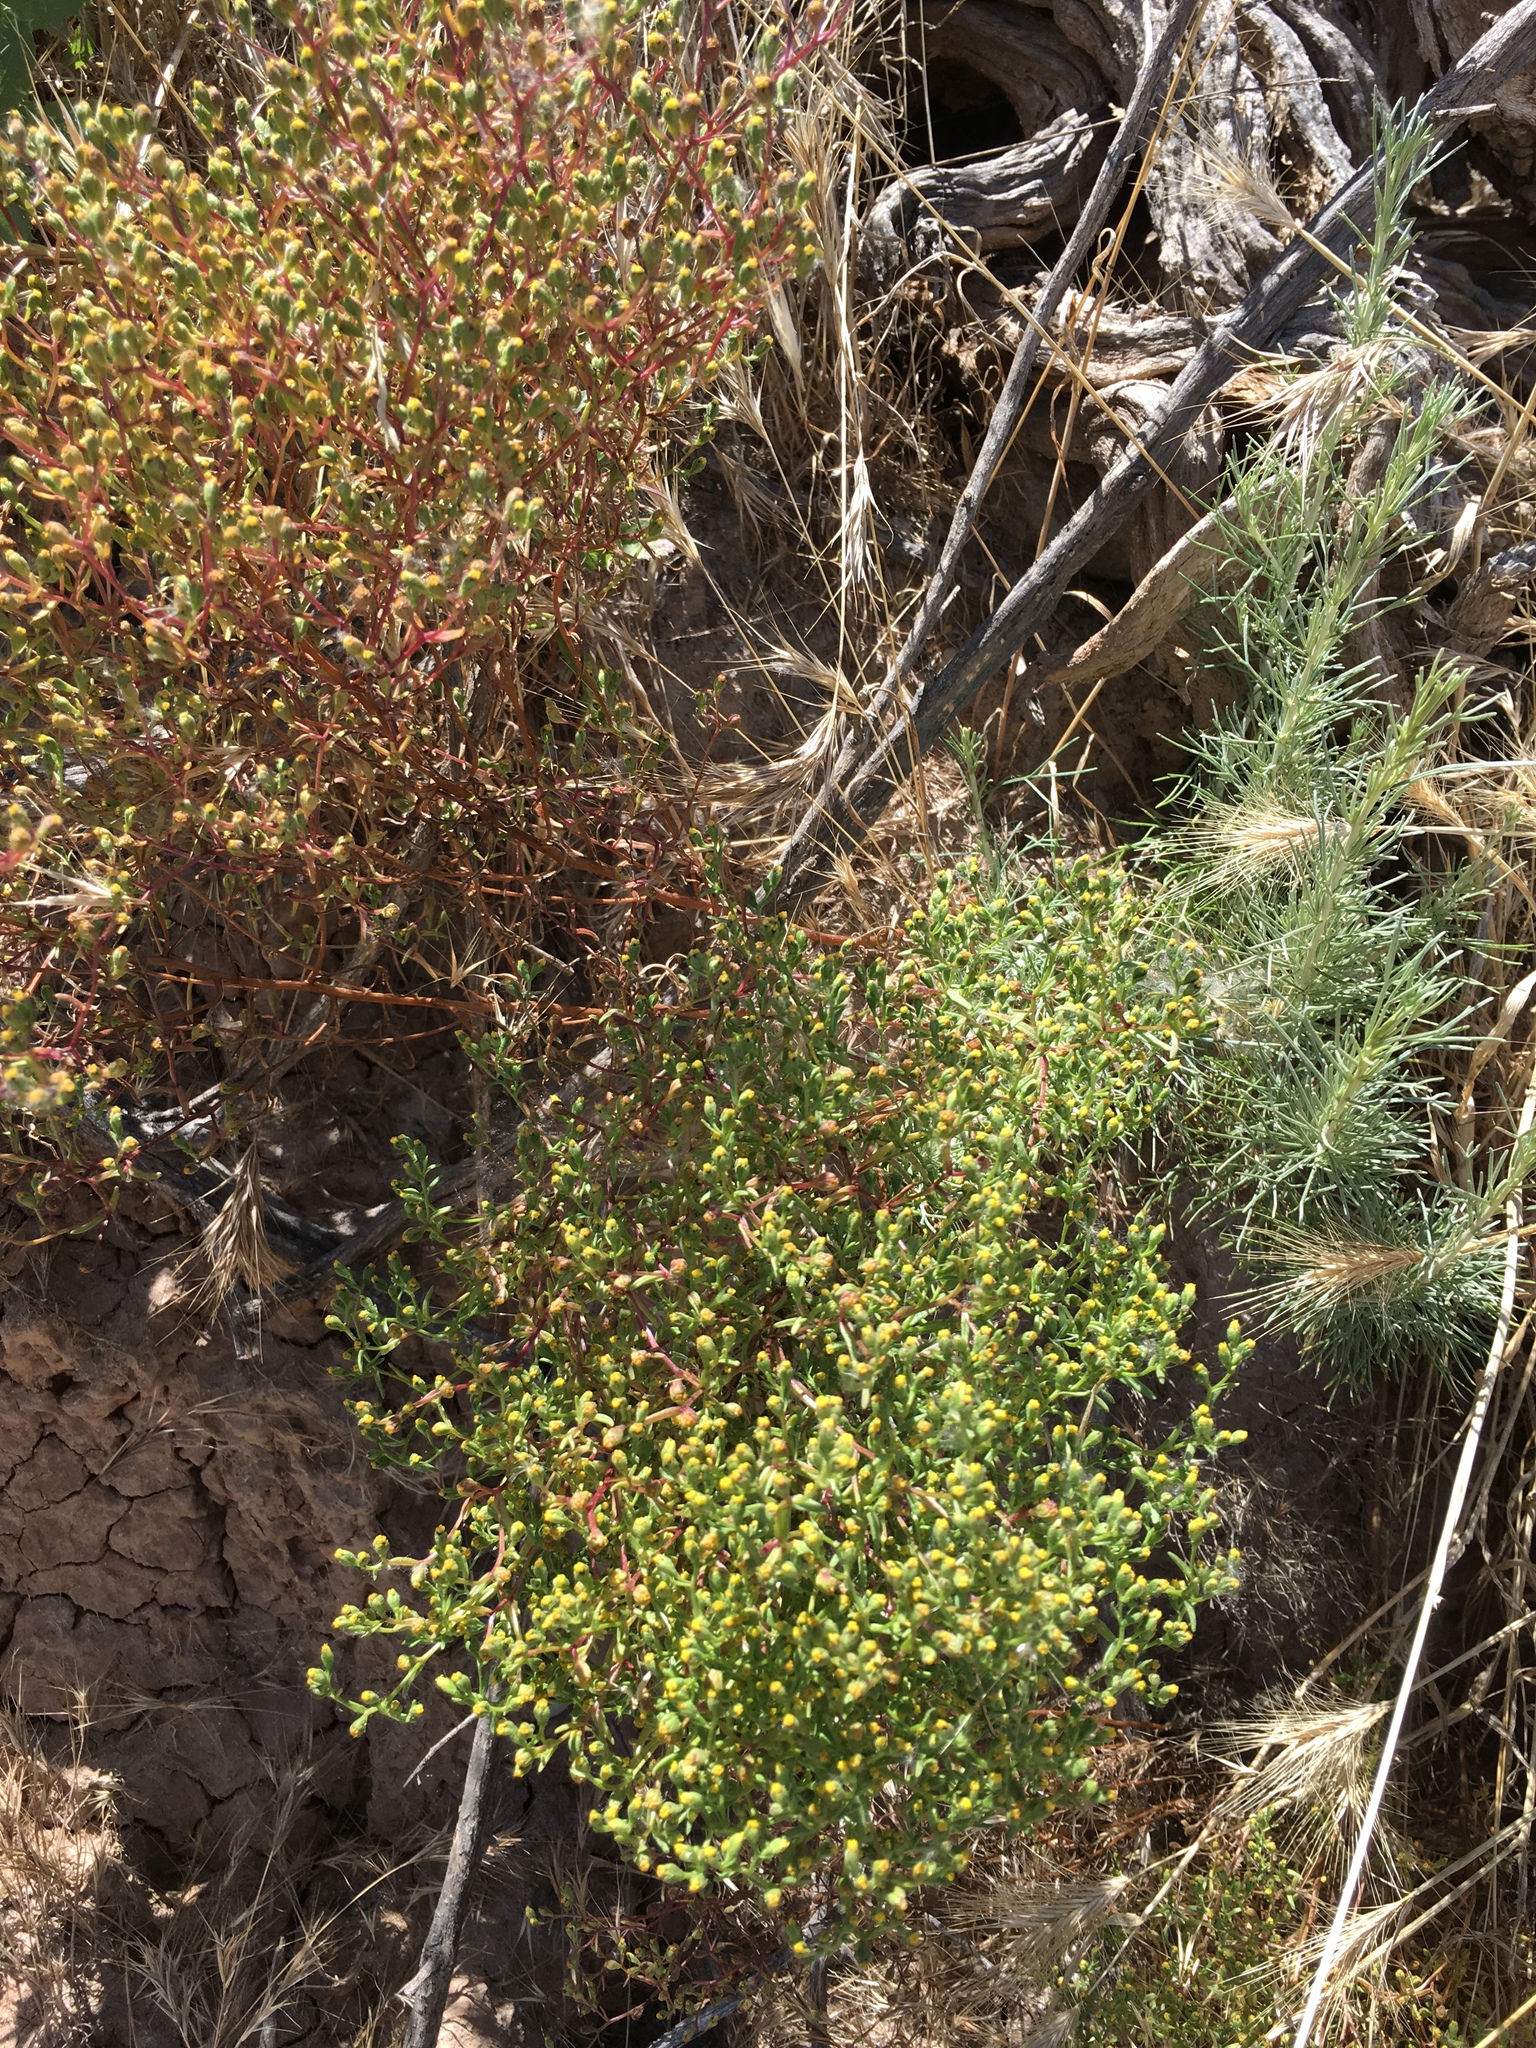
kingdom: Plantae
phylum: Tracheophyta
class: Magnoliopsida
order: Asterales
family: Asteraceae
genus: Amblyopappus
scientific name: Amblyopappus pusillus
